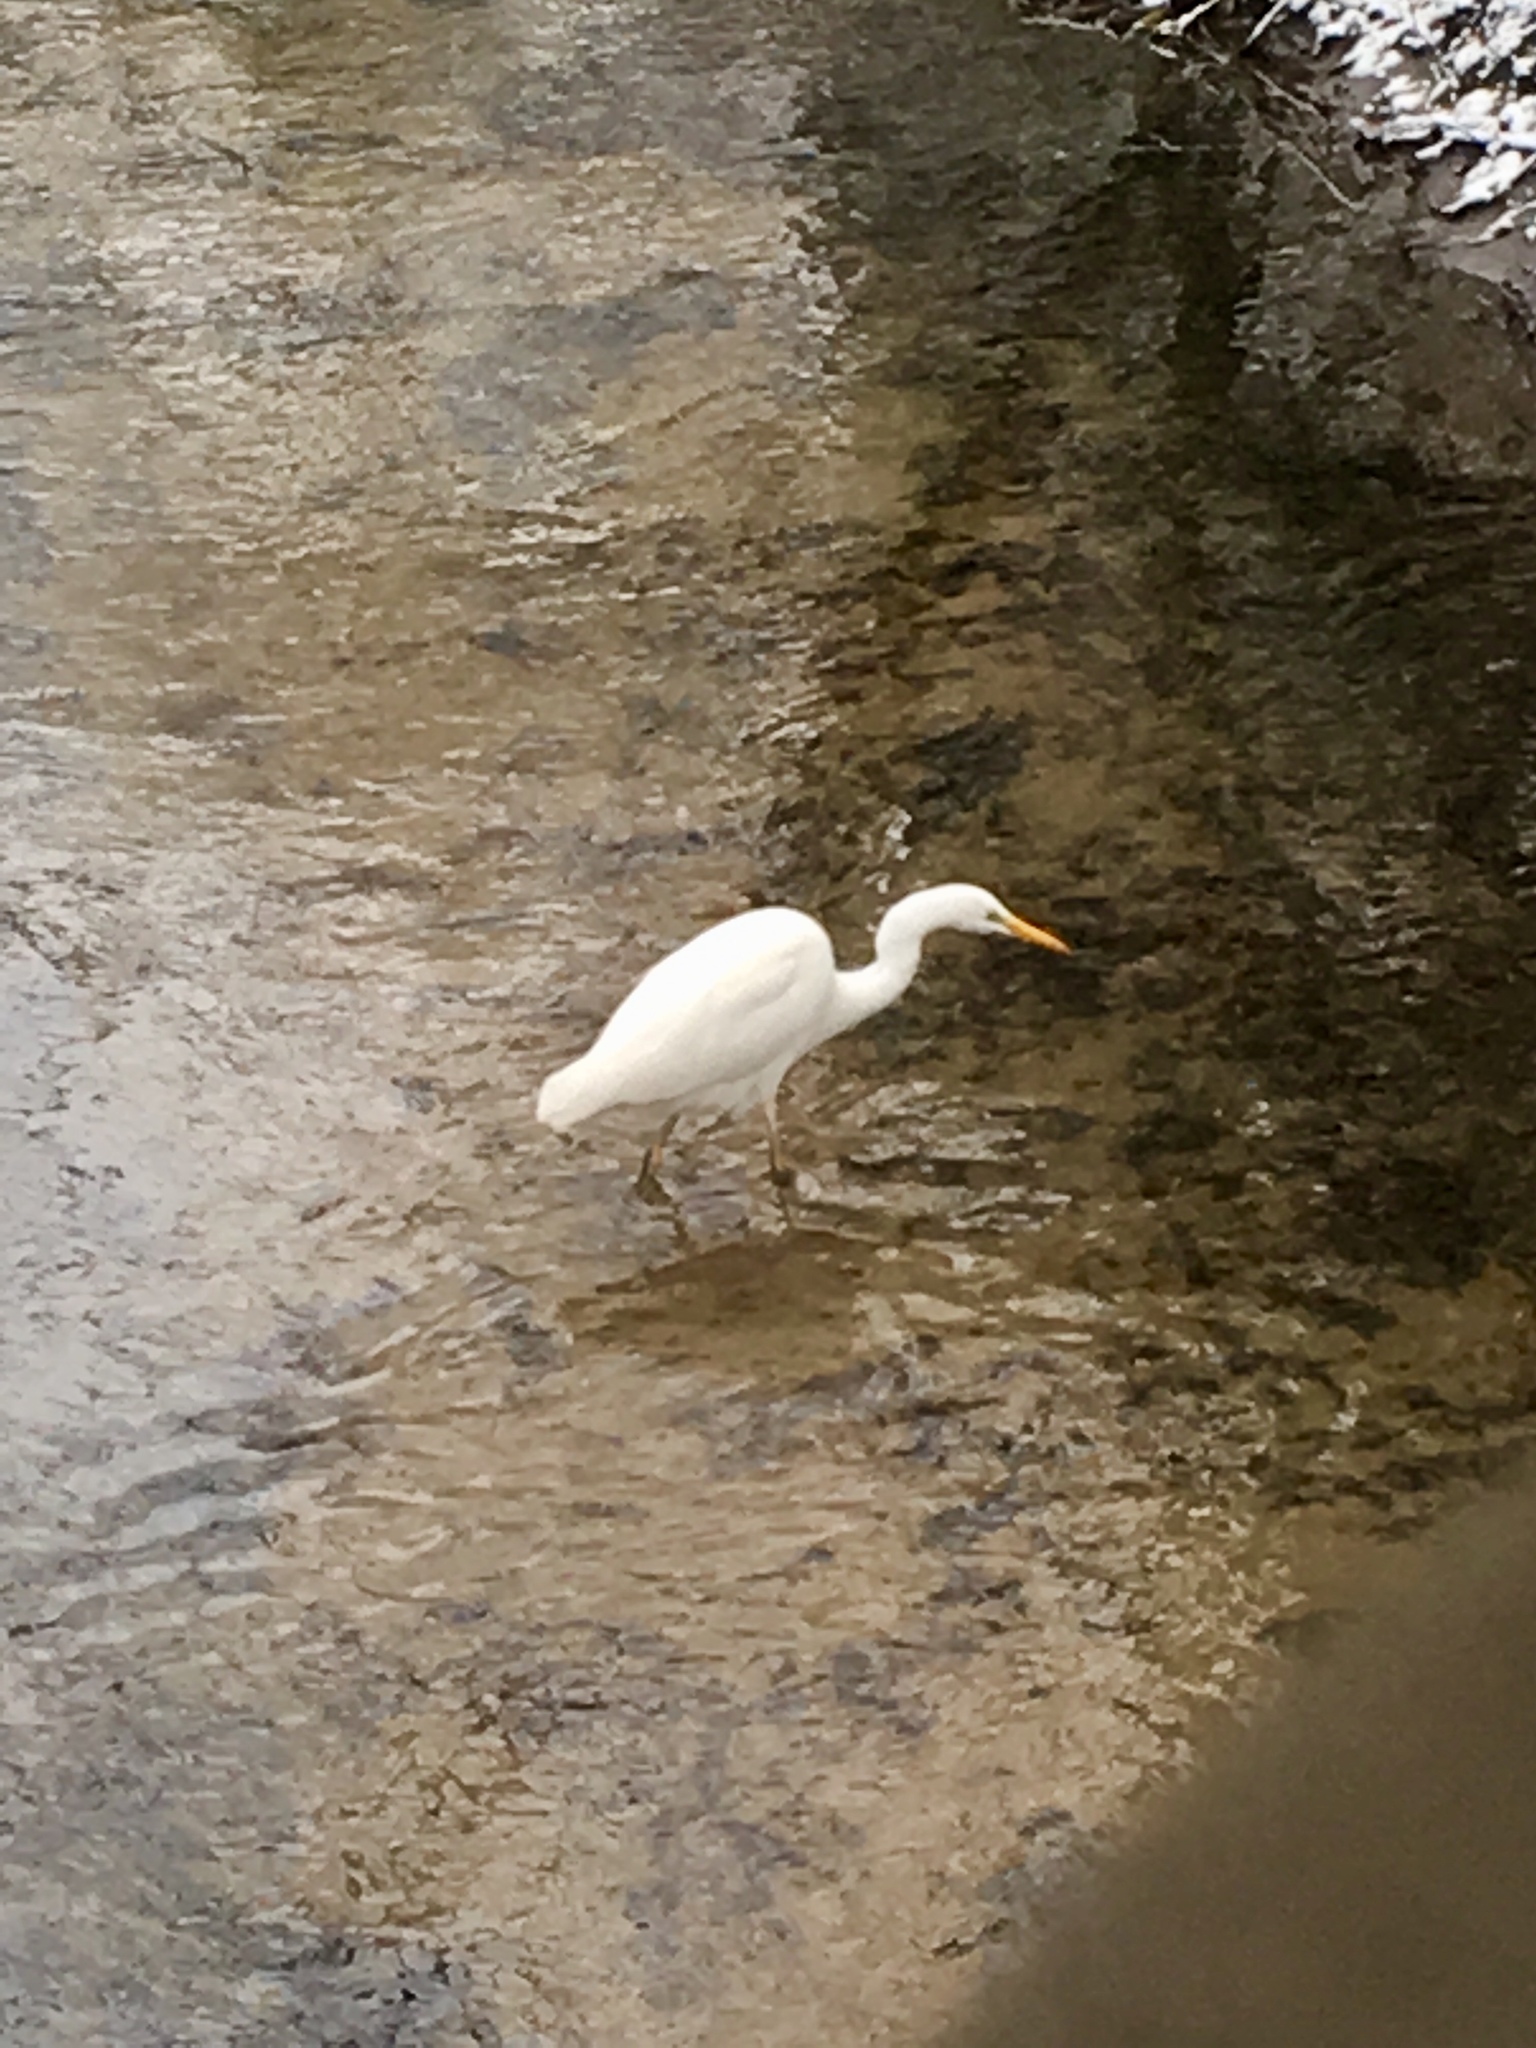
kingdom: Animalia
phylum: Chordata
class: Aves
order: Pelecaniformes
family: Ardeidae
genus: Ardea
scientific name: Ardea alba
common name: Great egret
